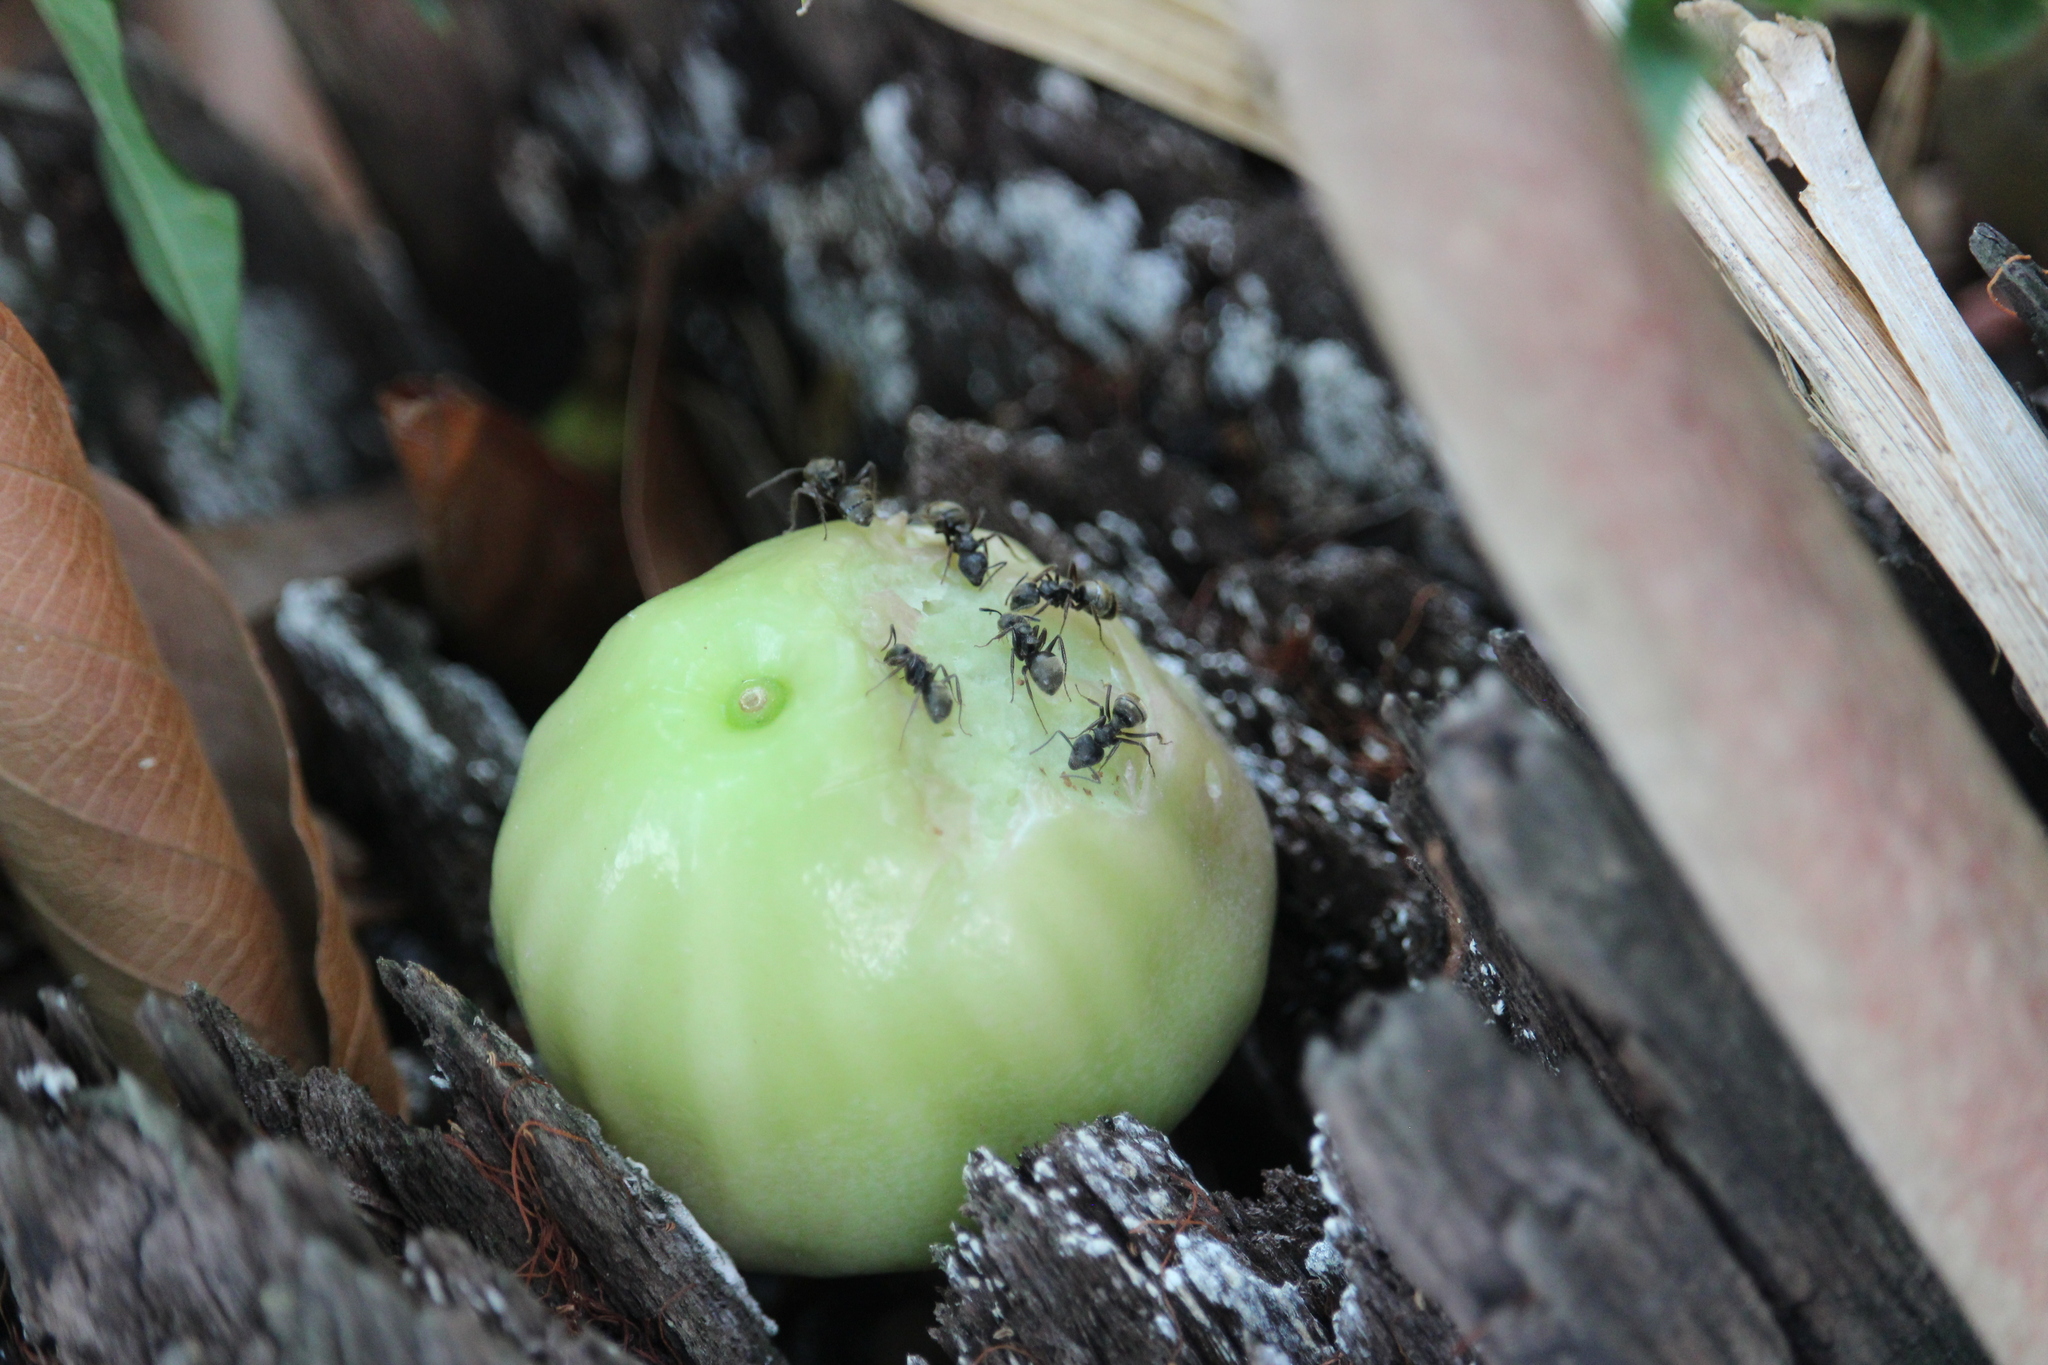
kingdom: Animalia
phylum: Arthropoda
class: Insecta
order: Hymenoptera
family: Formicidae
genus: Dolichoderus
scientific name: Dolichoderus bispinosus
